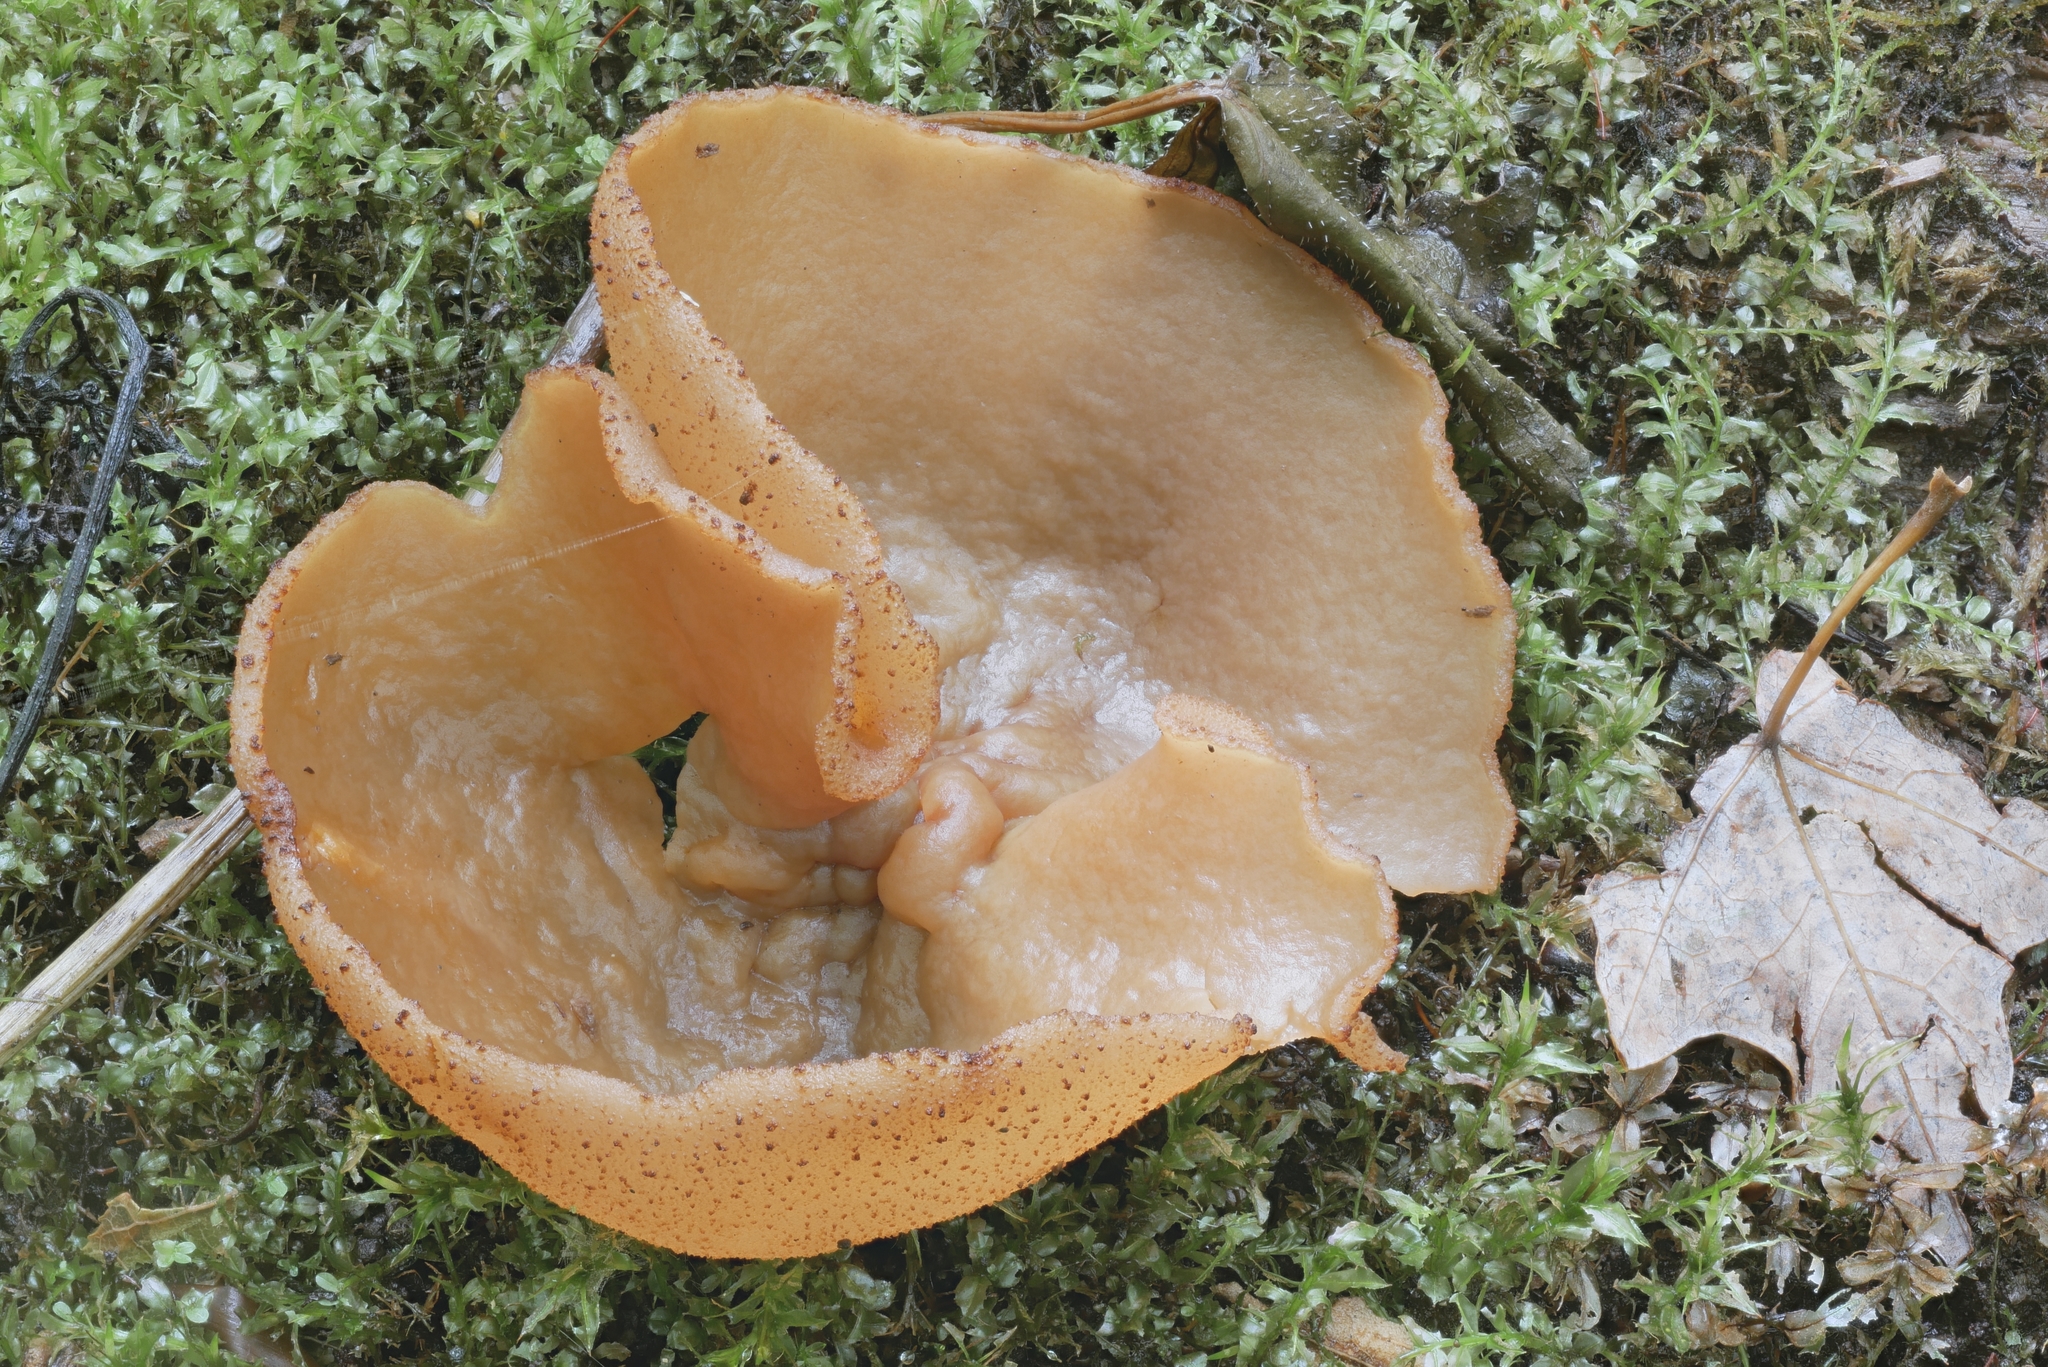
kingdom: Fungi
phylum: Ascomycota
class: Pezizomycetes
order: Pezizales
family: Pezizaceae
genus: Phylloscypha
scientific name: Phylloscypha phyllogena
